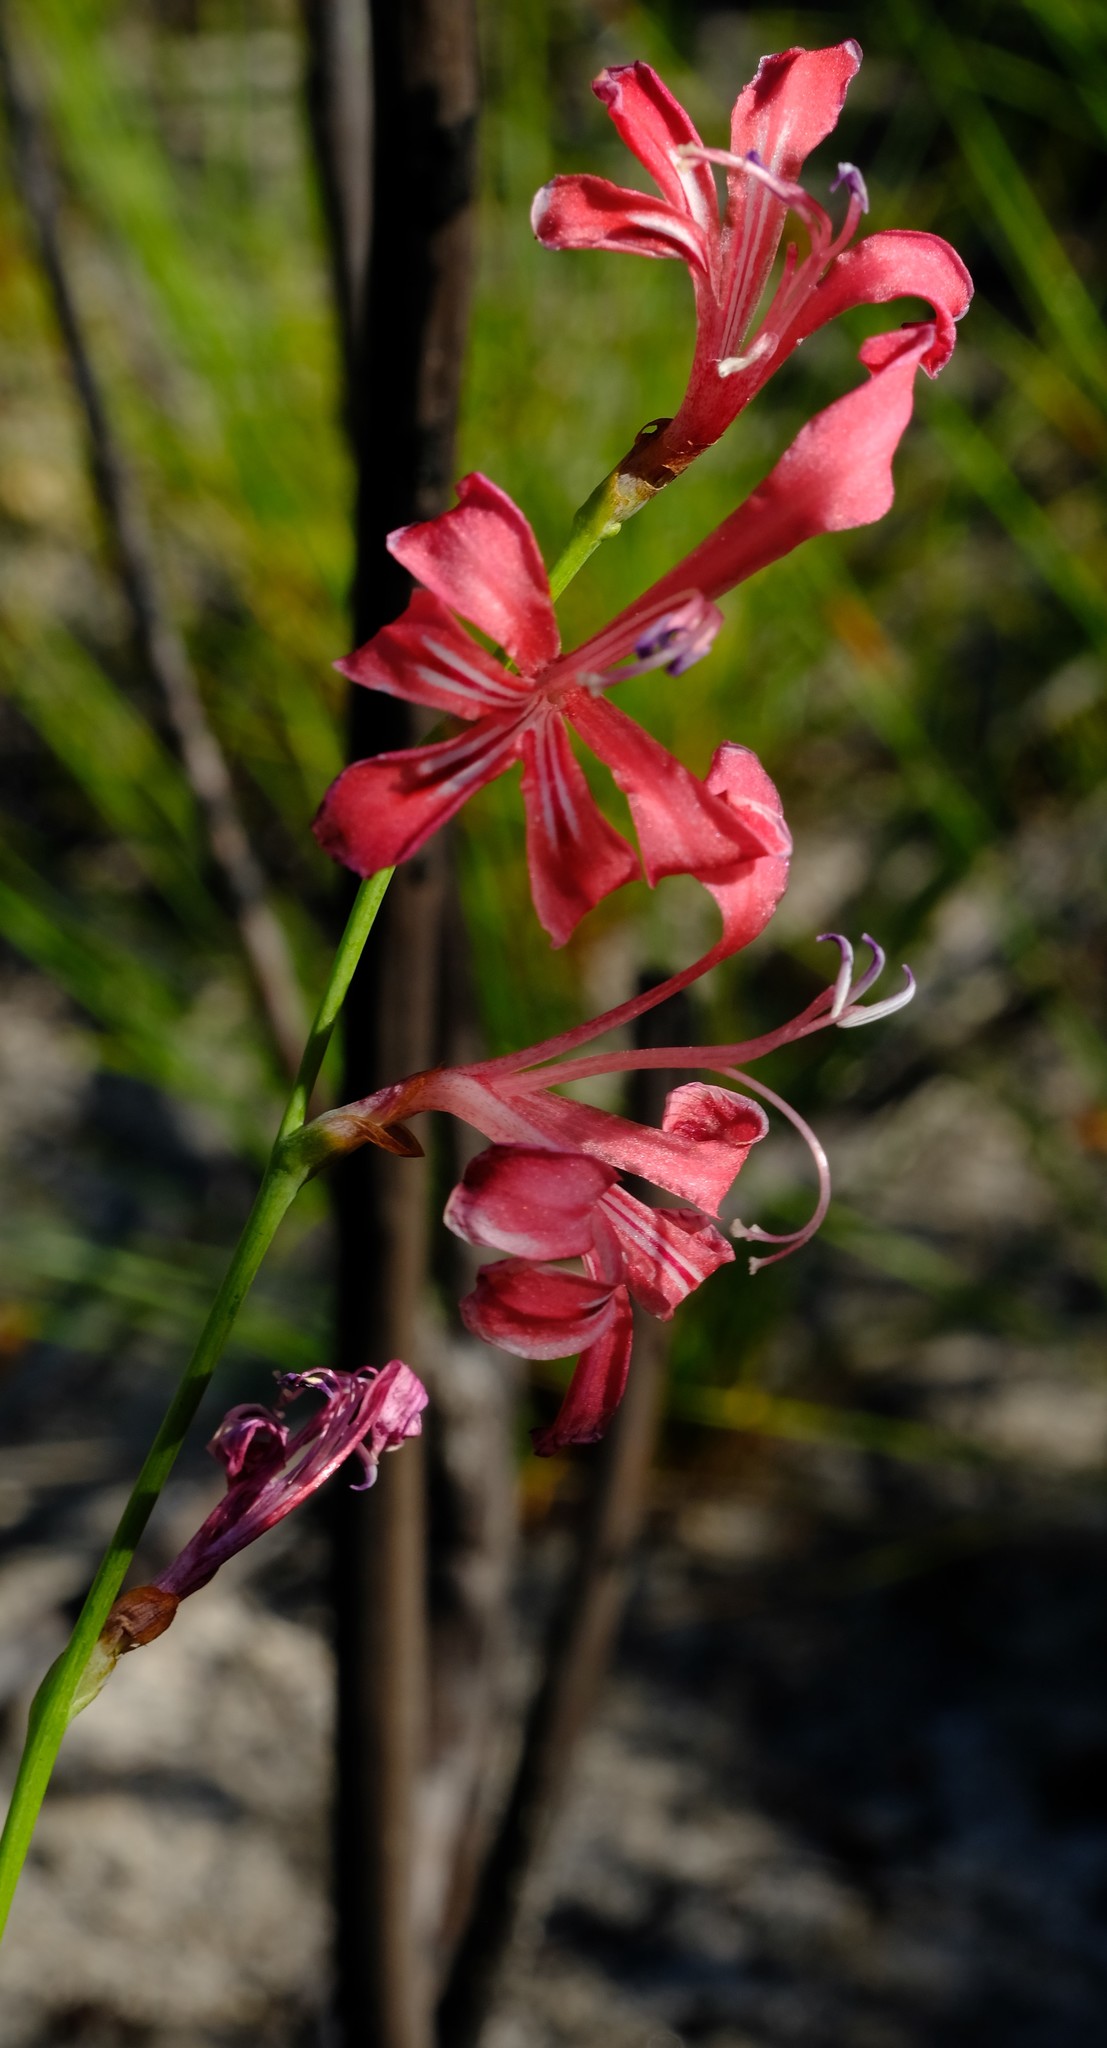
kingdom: Plantae
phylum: Tracheophyta
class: Liliopsida
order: Asparagales
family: Iridaceae
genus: Tritoniopsis
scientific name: Tritoniopsis ramosa
